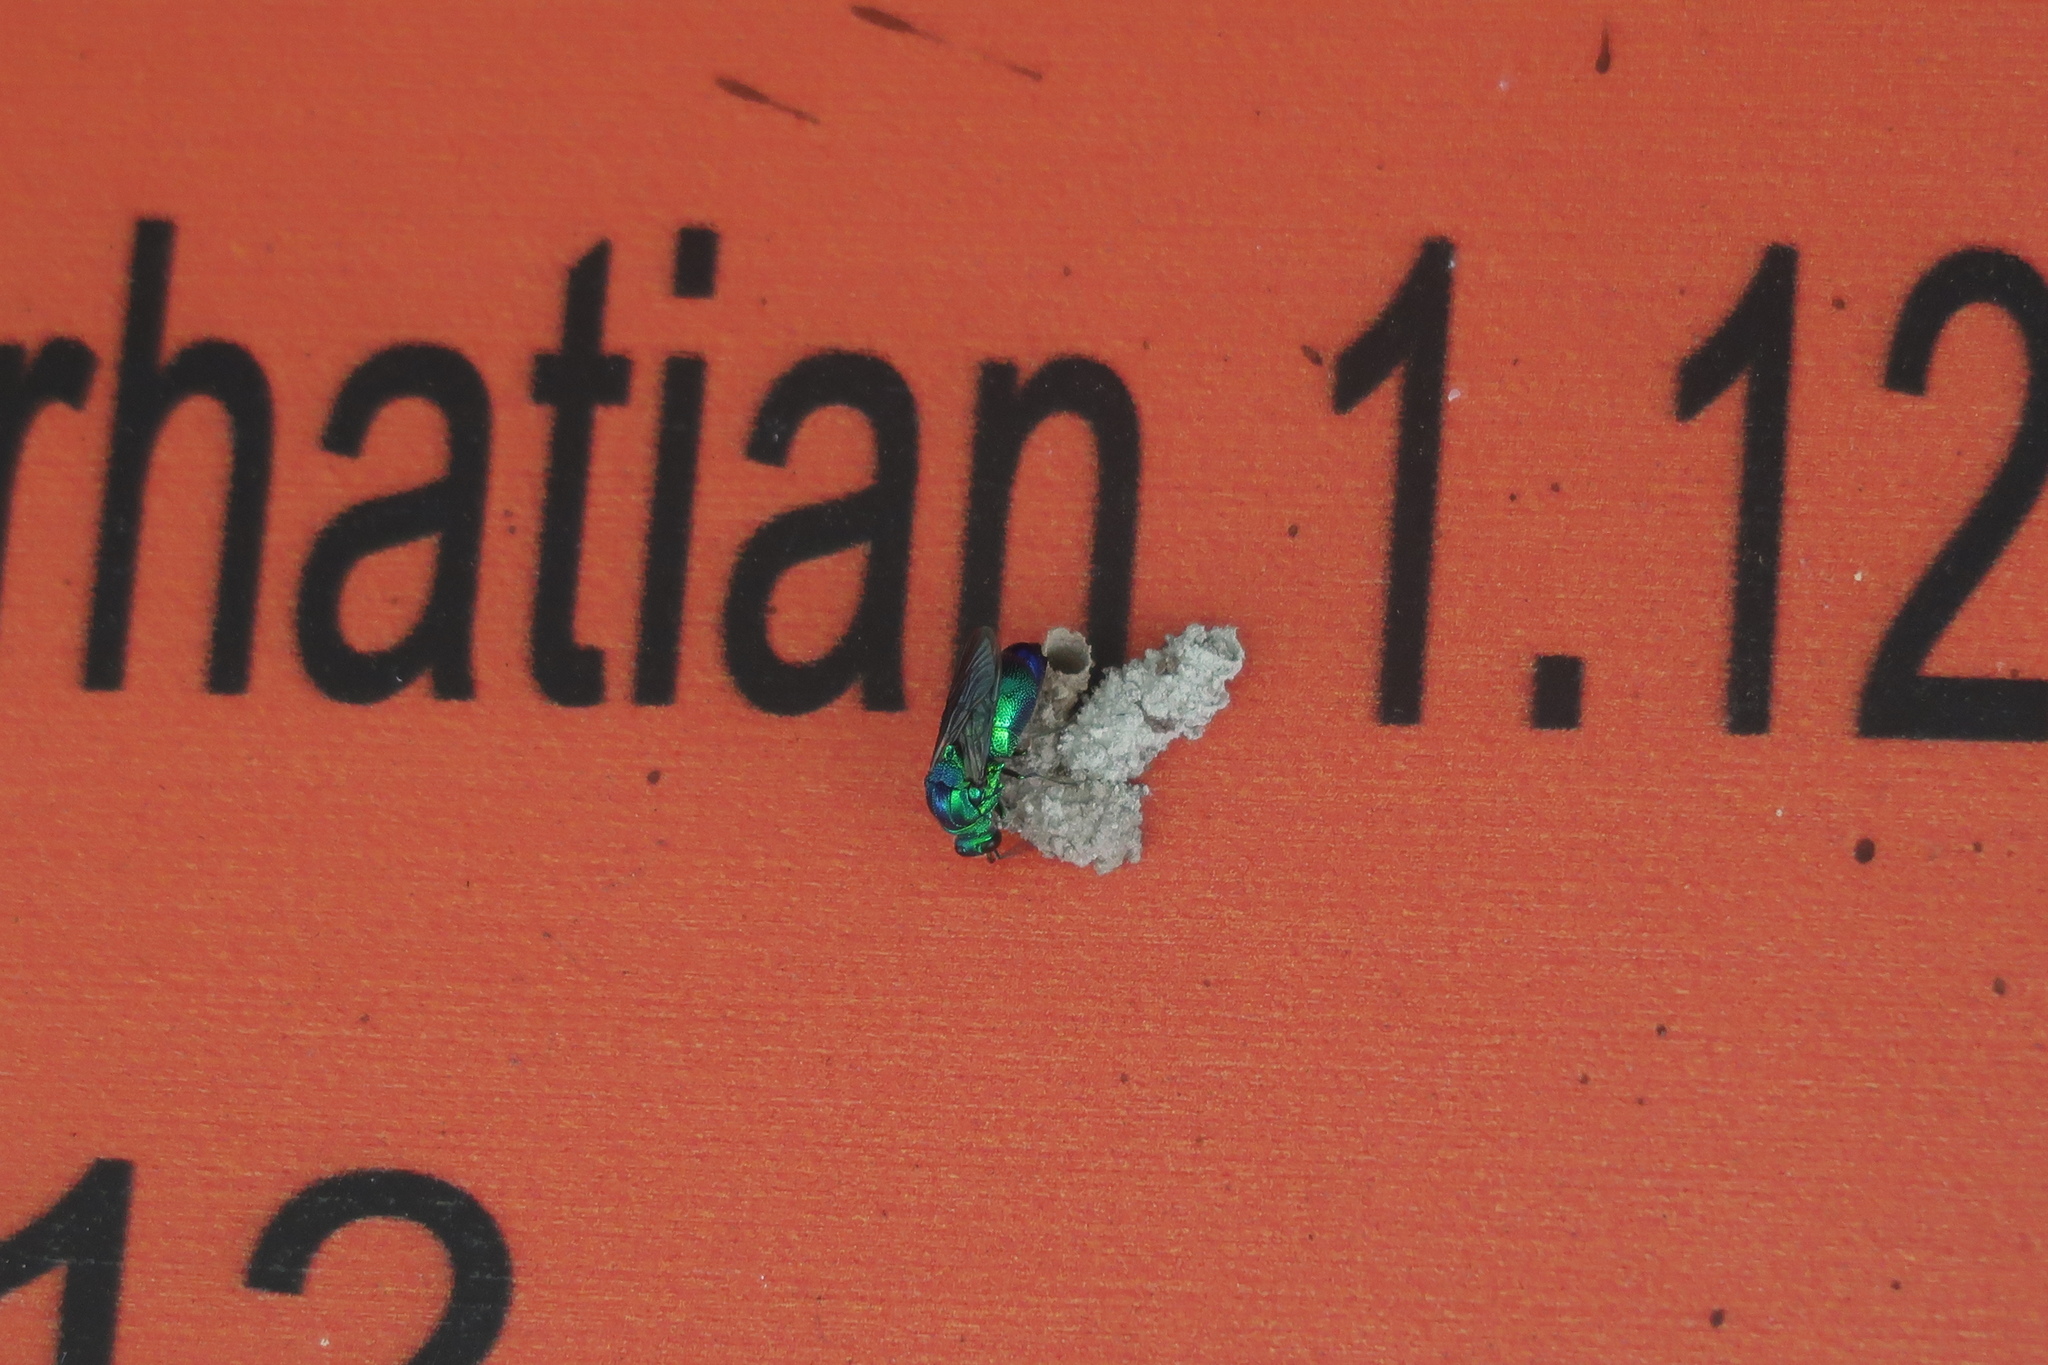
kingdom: Animalia
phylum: Arthropoda
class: Insecta
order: Hymenoptera
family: Chrysididae
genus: Stilbum
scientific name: Stilbum cyanurum
